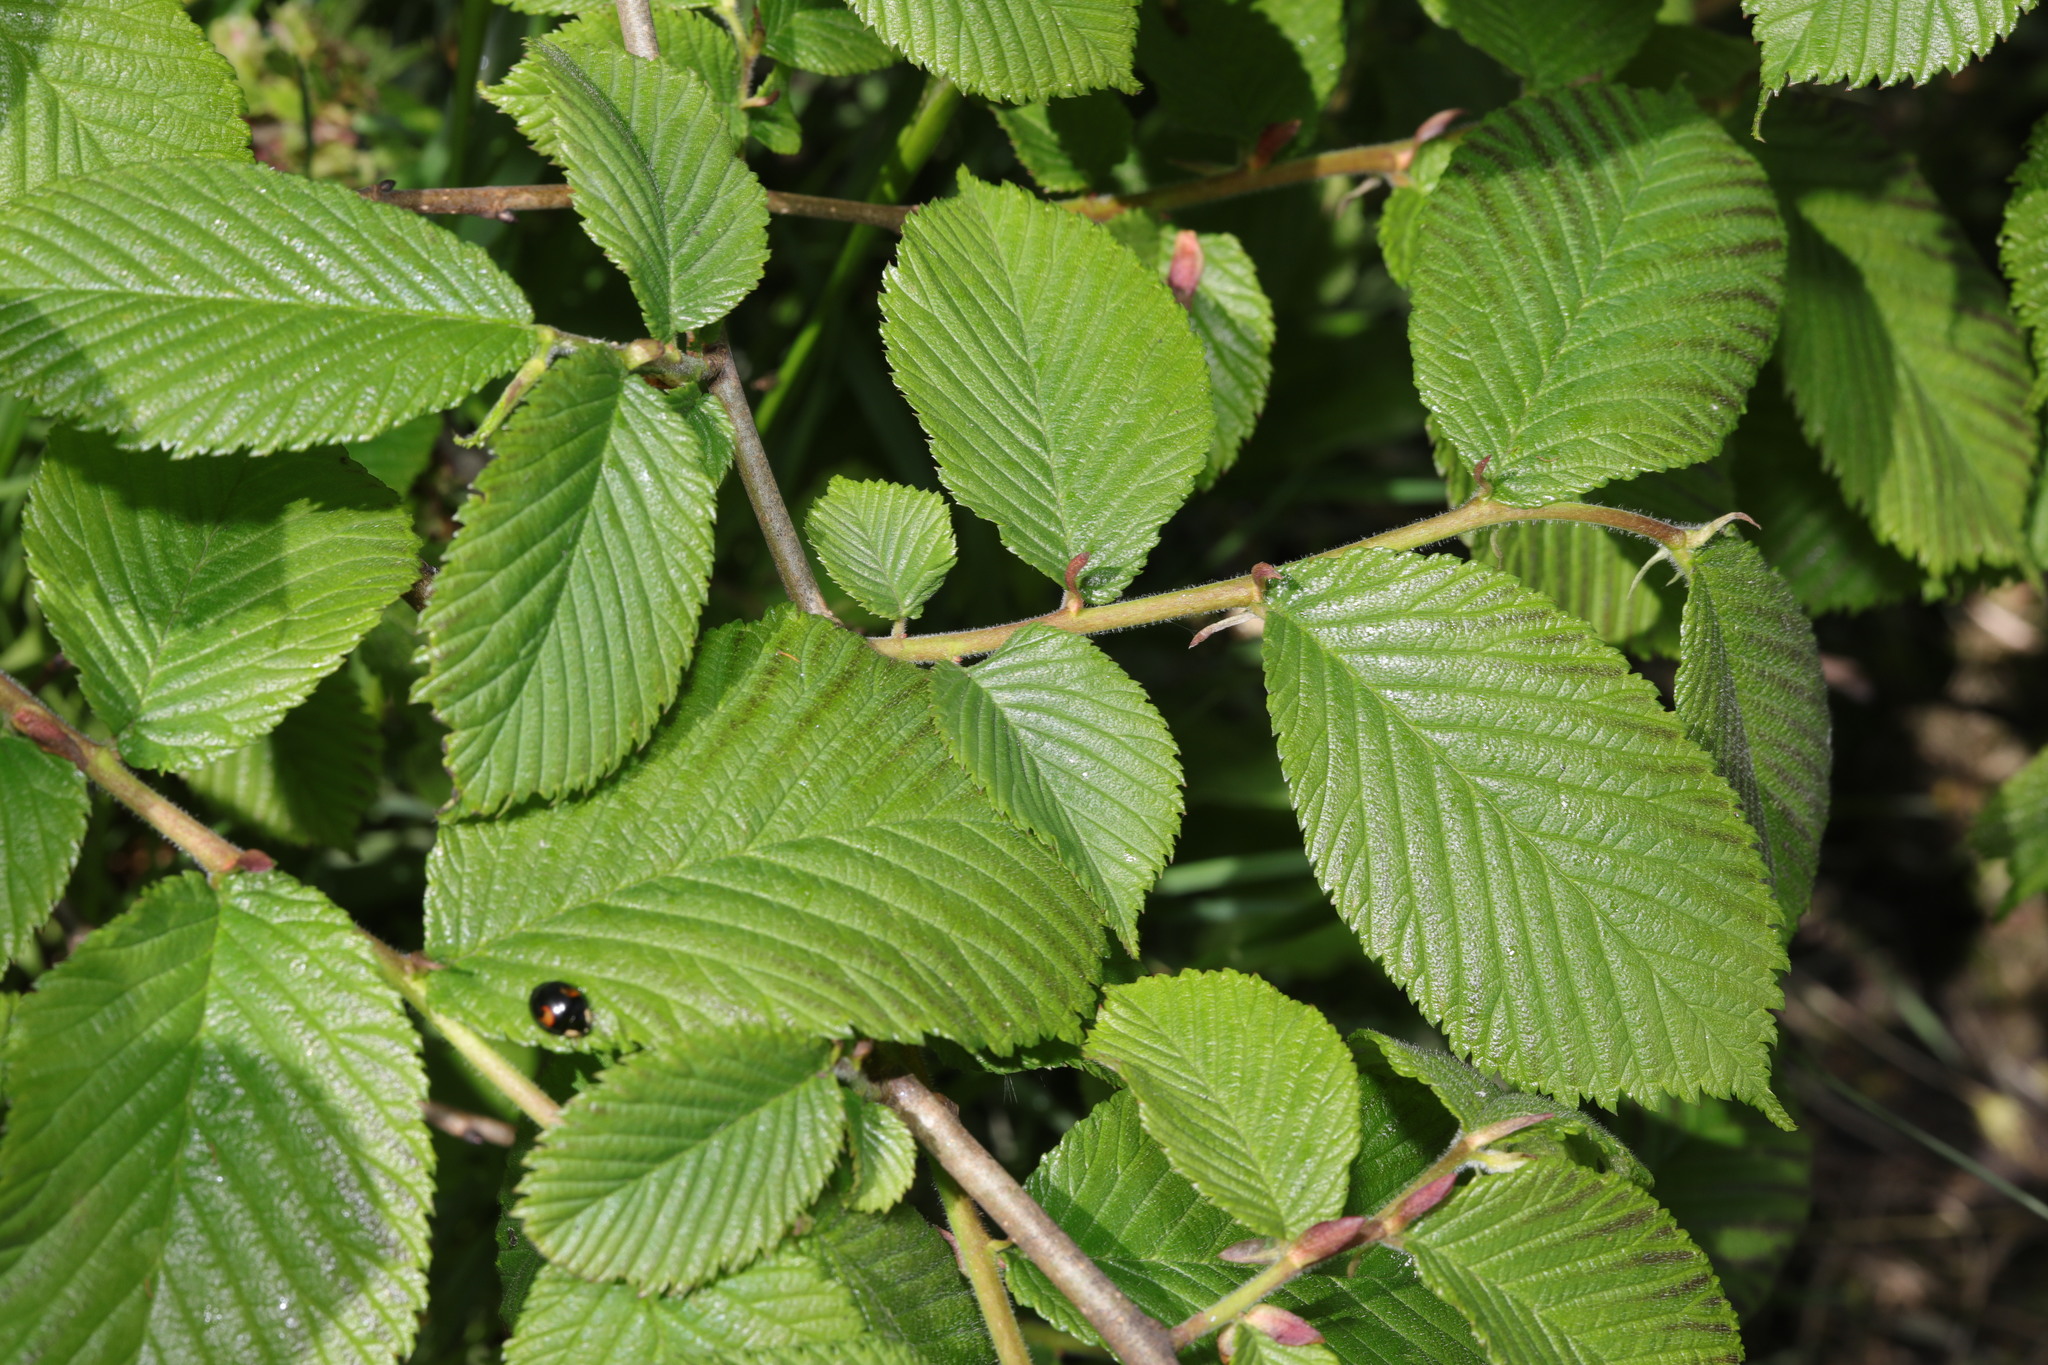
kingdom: Plantae
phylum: Tracheophyta
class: Magnoliopsida
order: Rosales
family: Ulmaceae
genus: Ulmus
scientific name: Ulmus glabra
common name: Wych elm
